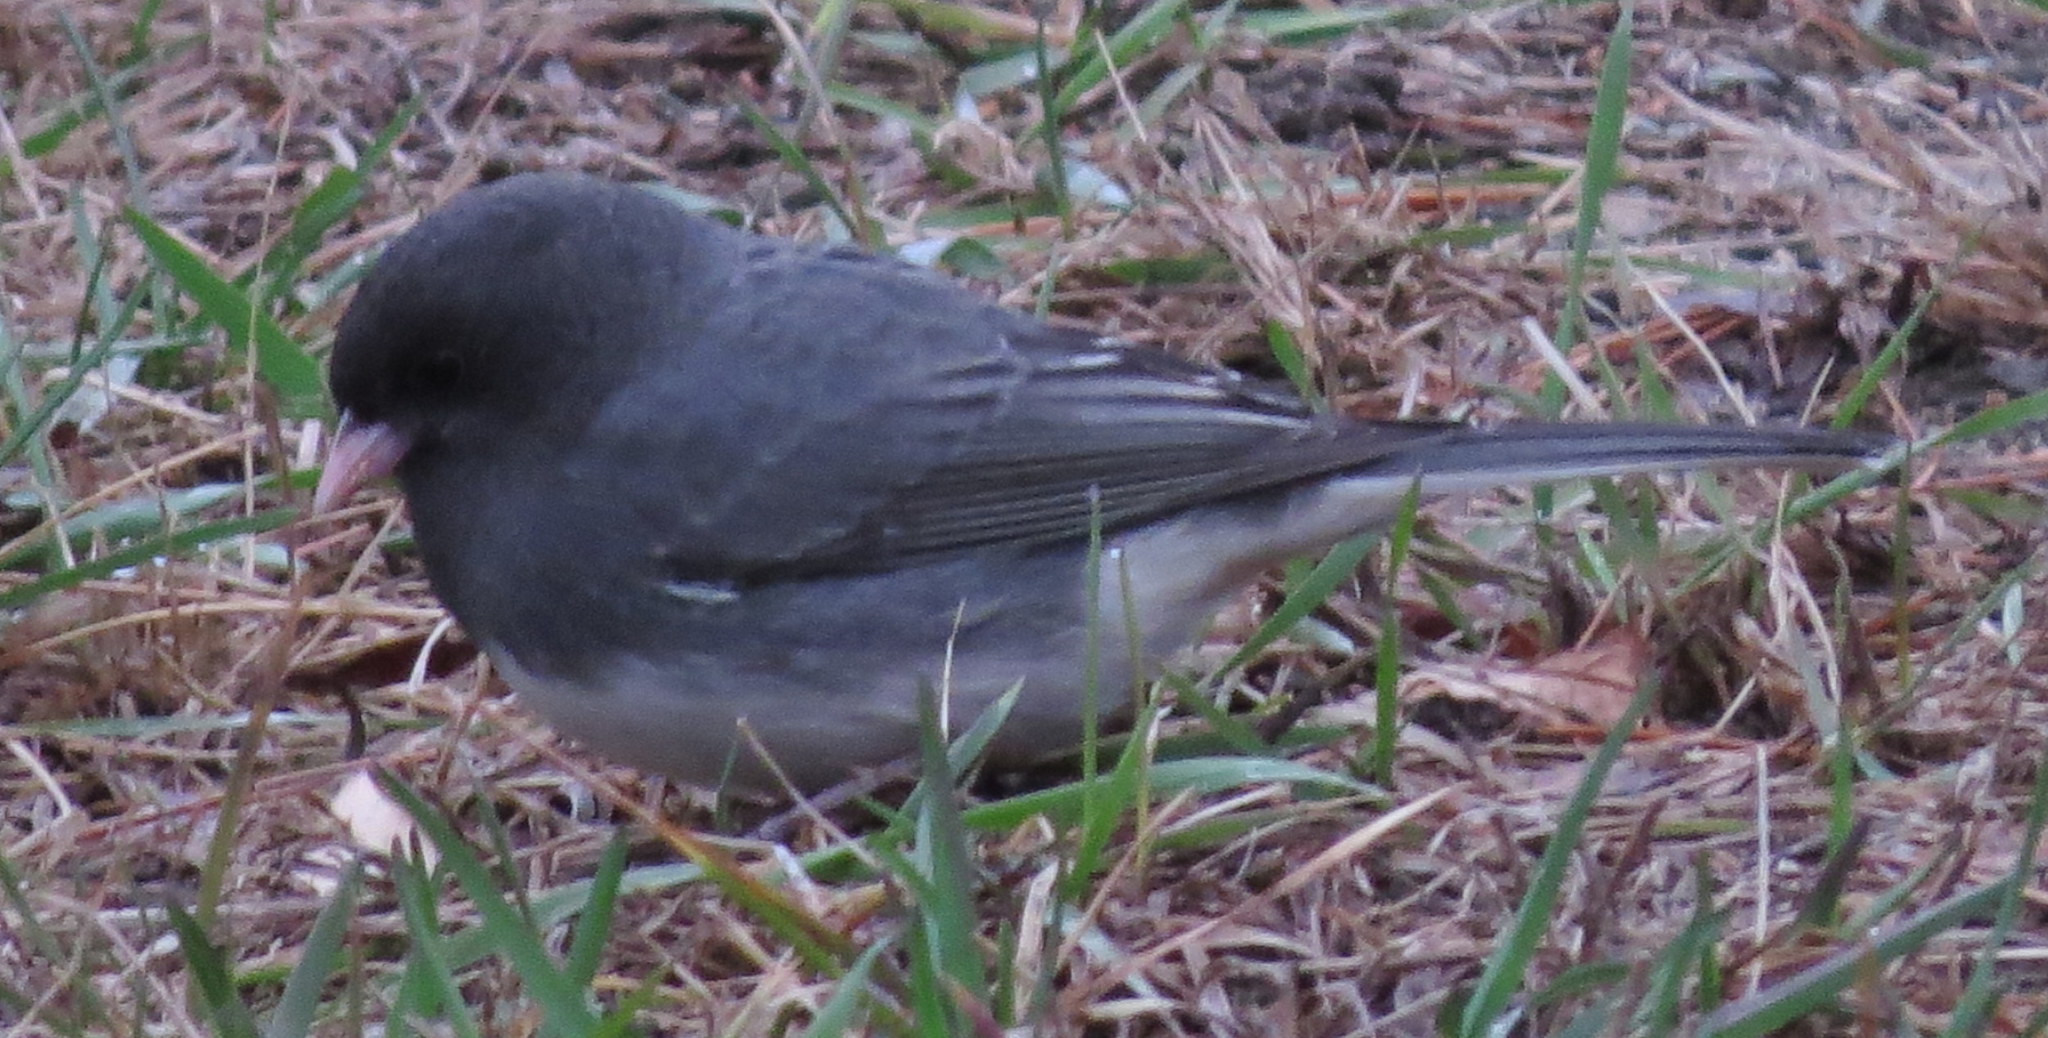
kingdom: Animalia
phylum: Chordata
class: Aves
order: Passeriformes
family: Passerellidae
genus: Junco
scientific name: Junco hyemalis
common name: Dark-eyed junco
